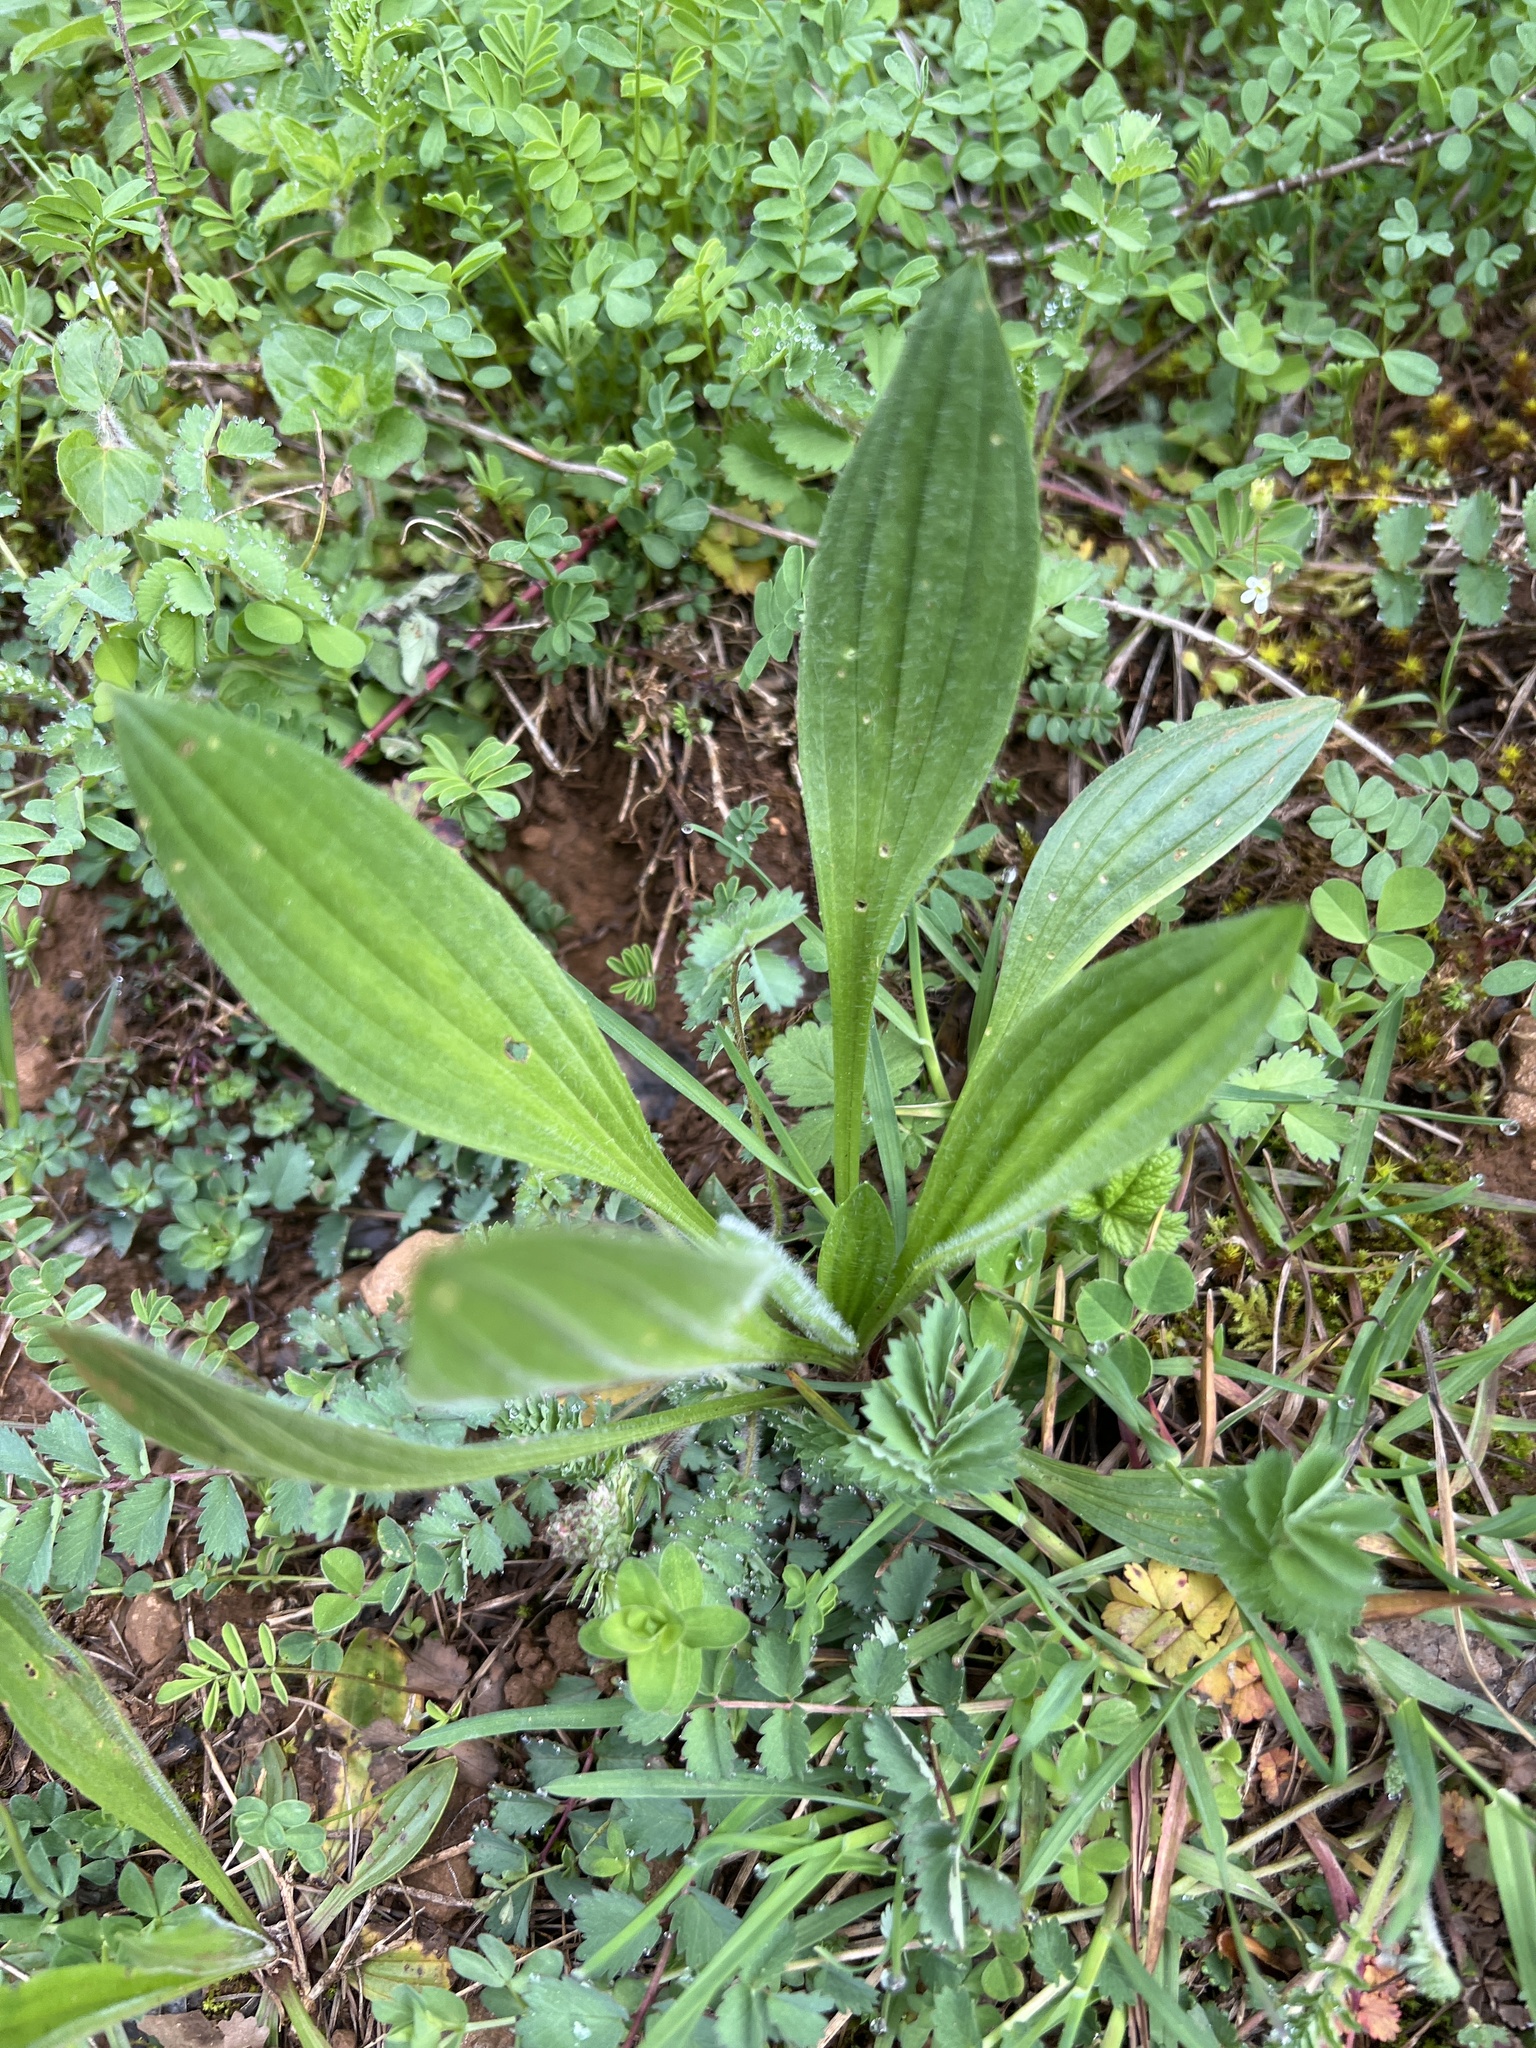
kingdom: Plantae
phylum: Tracheophyta
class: Magnoliopsida
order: Lamiales
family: Plantaginaceae
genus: Plantago
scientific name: Plantago lanceolata
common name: Ribwort plantain
